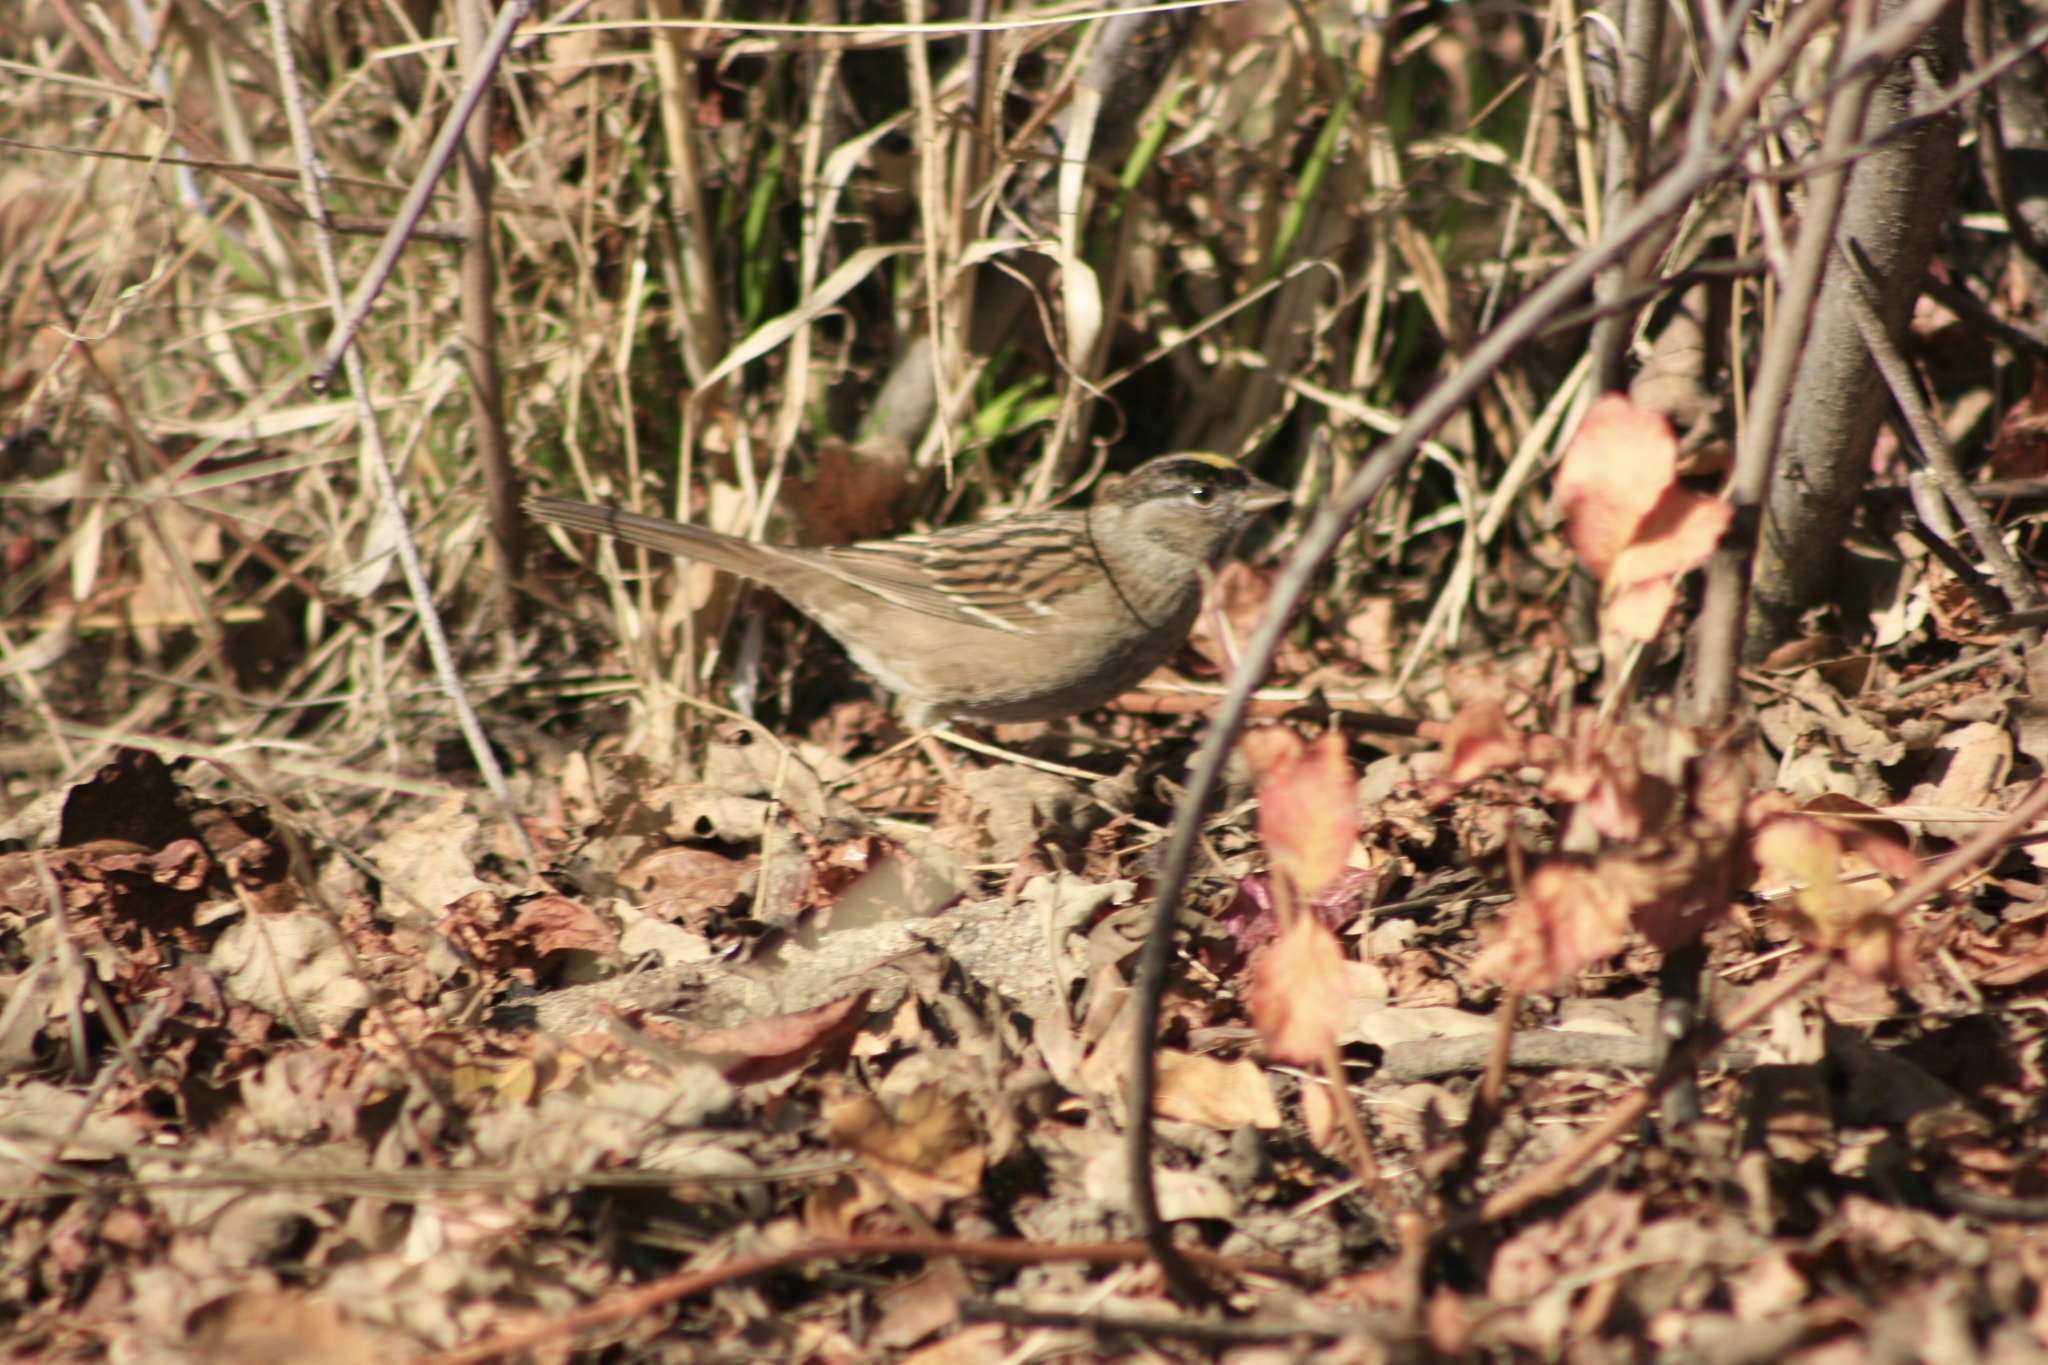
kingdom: Animalia
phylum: Chordata
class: Aves
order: Passeriformes
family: Passerellidae
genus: Zonotrichia
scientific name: Zonotrichia atricapilla
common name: Golden-crowned sparrow
